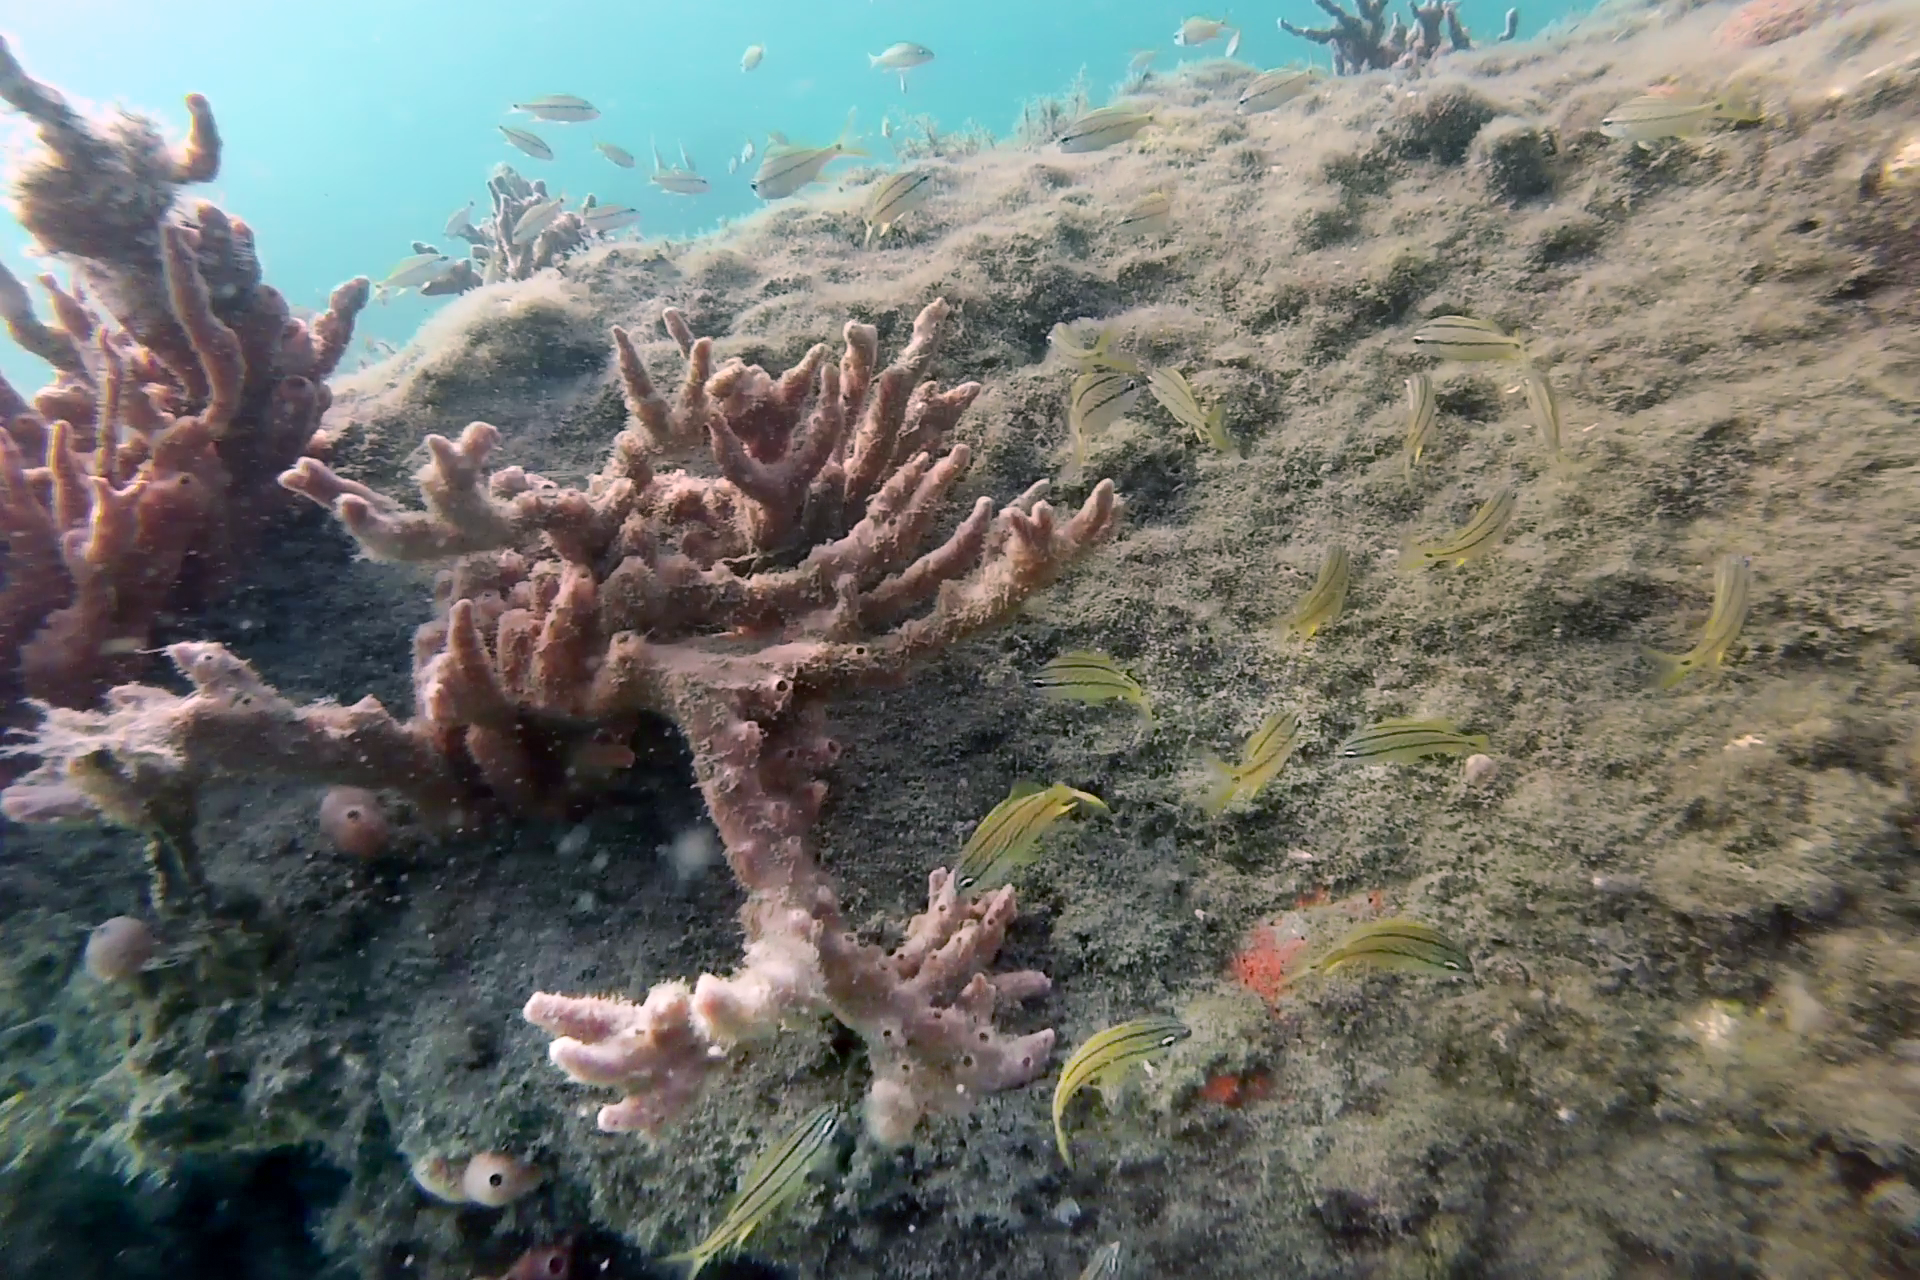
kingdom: Animalia
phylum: Chordata
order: Perciformes
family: Haemulidae
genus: Haemulon
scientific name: Haemulon flavolineatum
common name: French grunt
